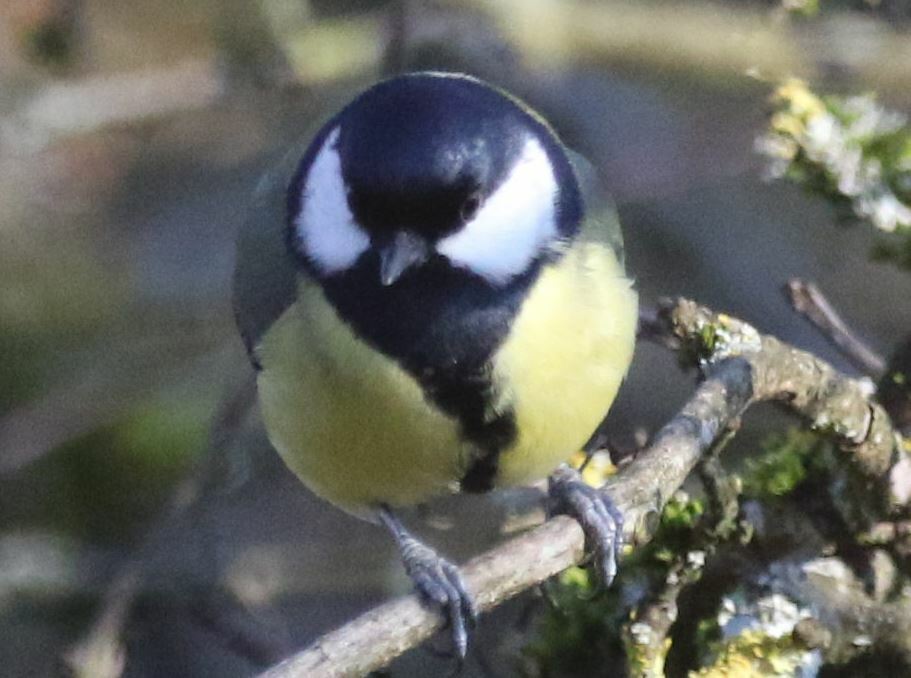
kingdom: Animalia
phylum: Chordata
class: Aves
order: Passeriformes
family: Paridae
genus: Parus
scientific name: Parus major
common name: Great tit
